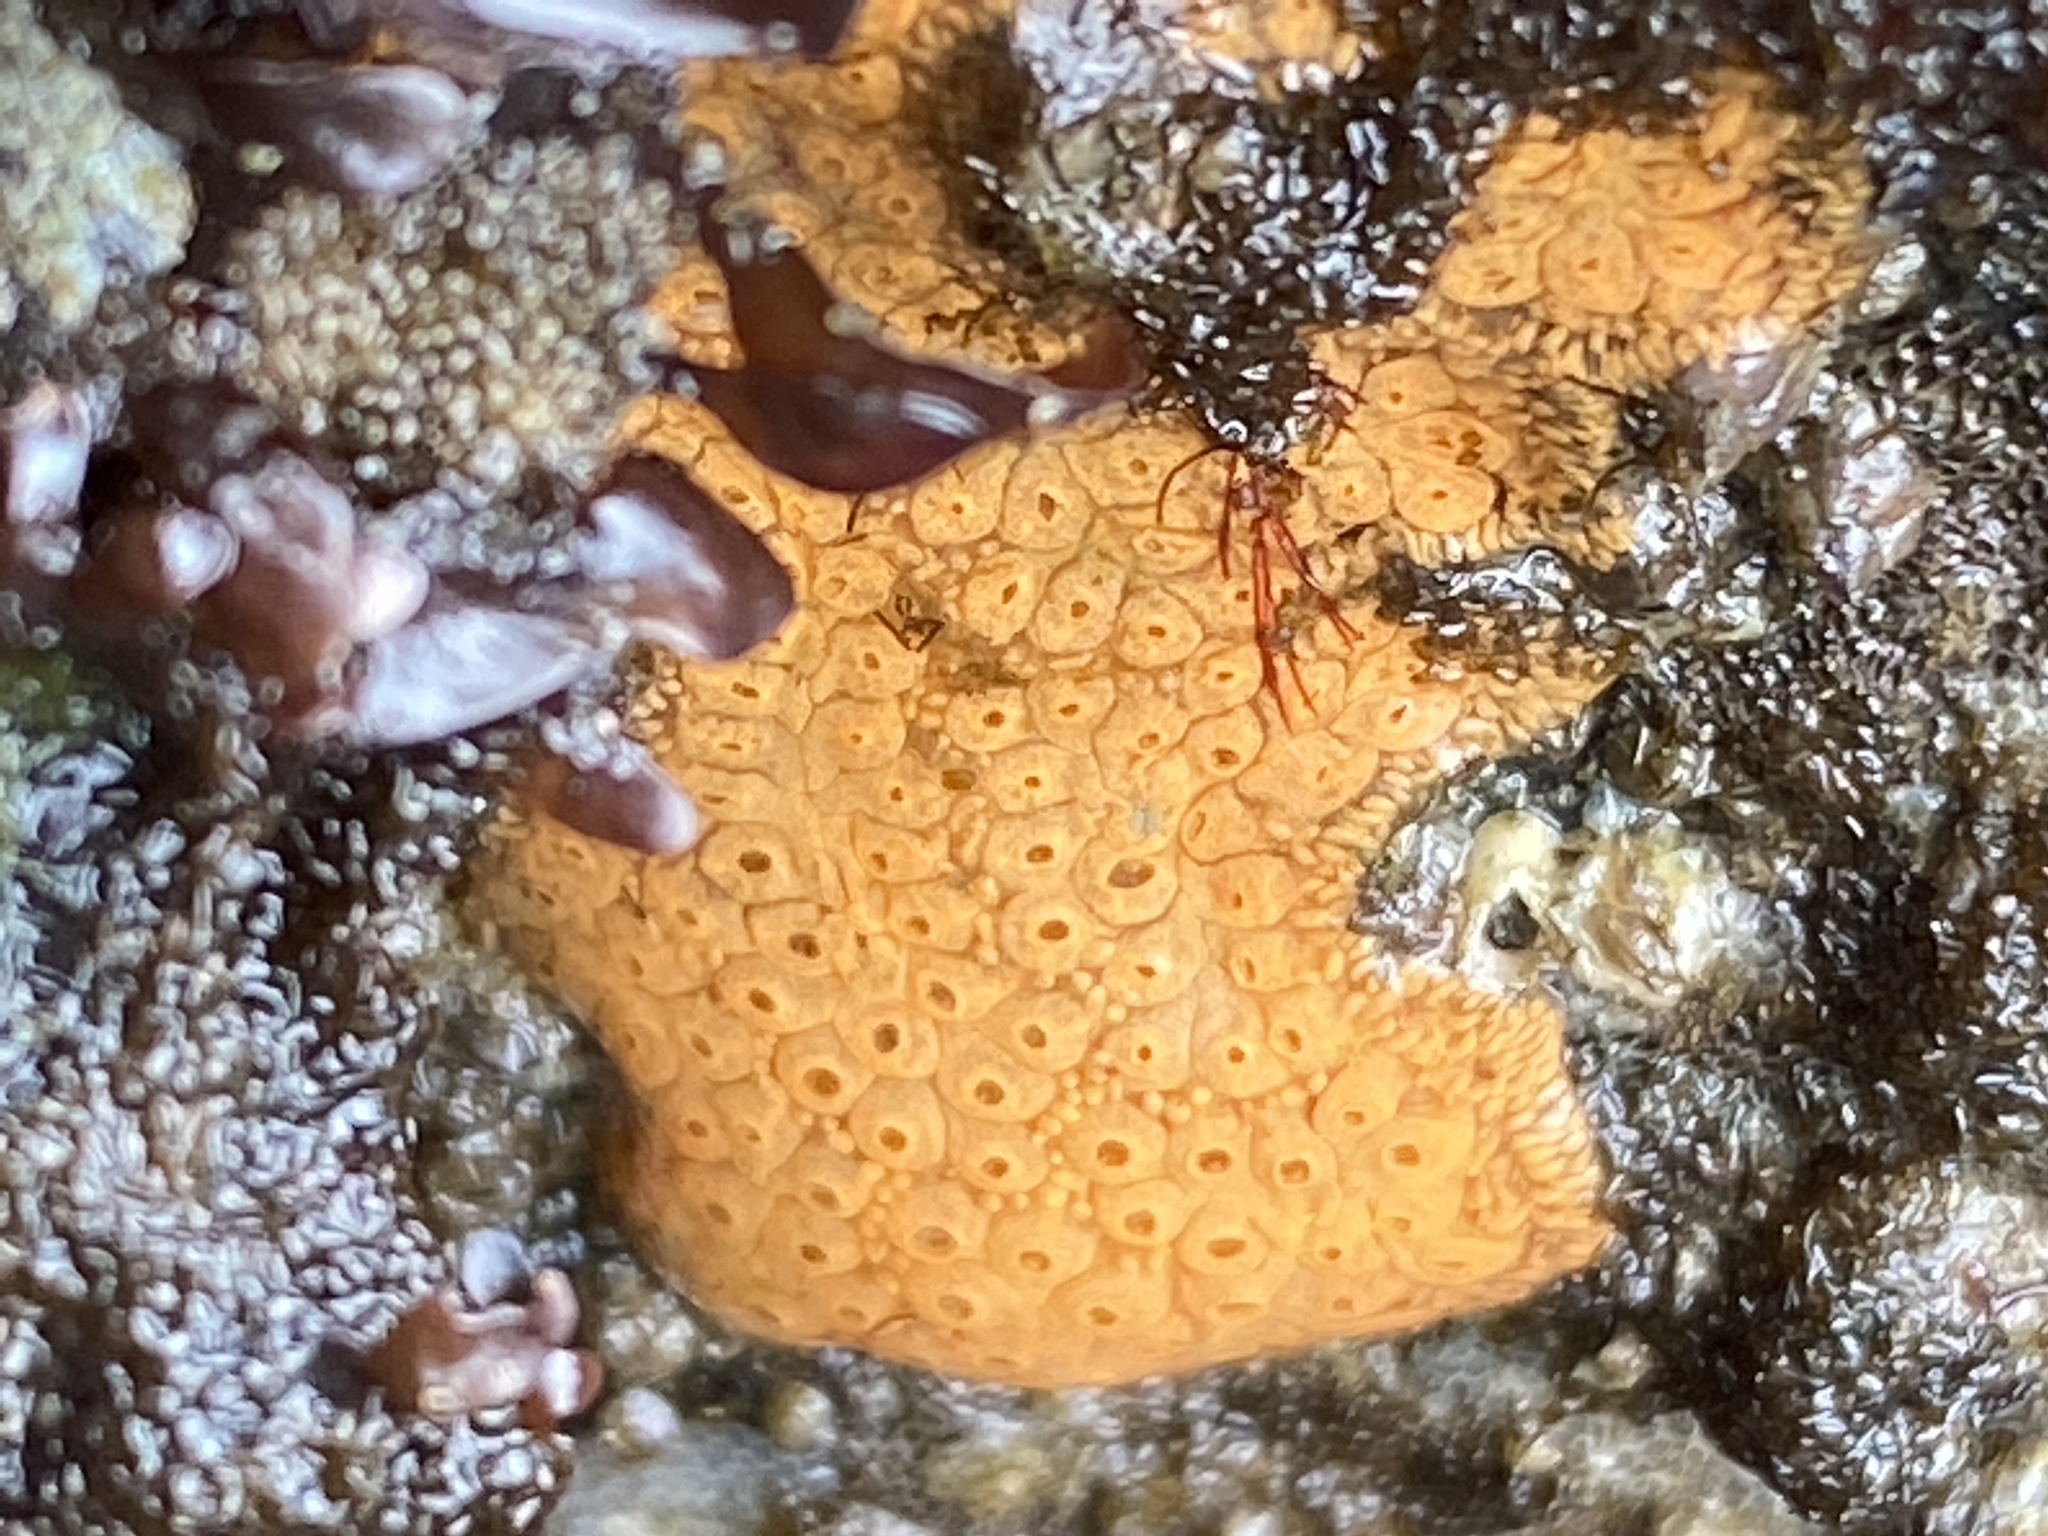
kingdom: Animalia
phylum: Chordata
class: Ascidiacea
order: Stolidobranchia
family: Styelidae
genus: Botrylloides
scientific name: Botrylloides violaceus
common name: Colonial sea squirt
